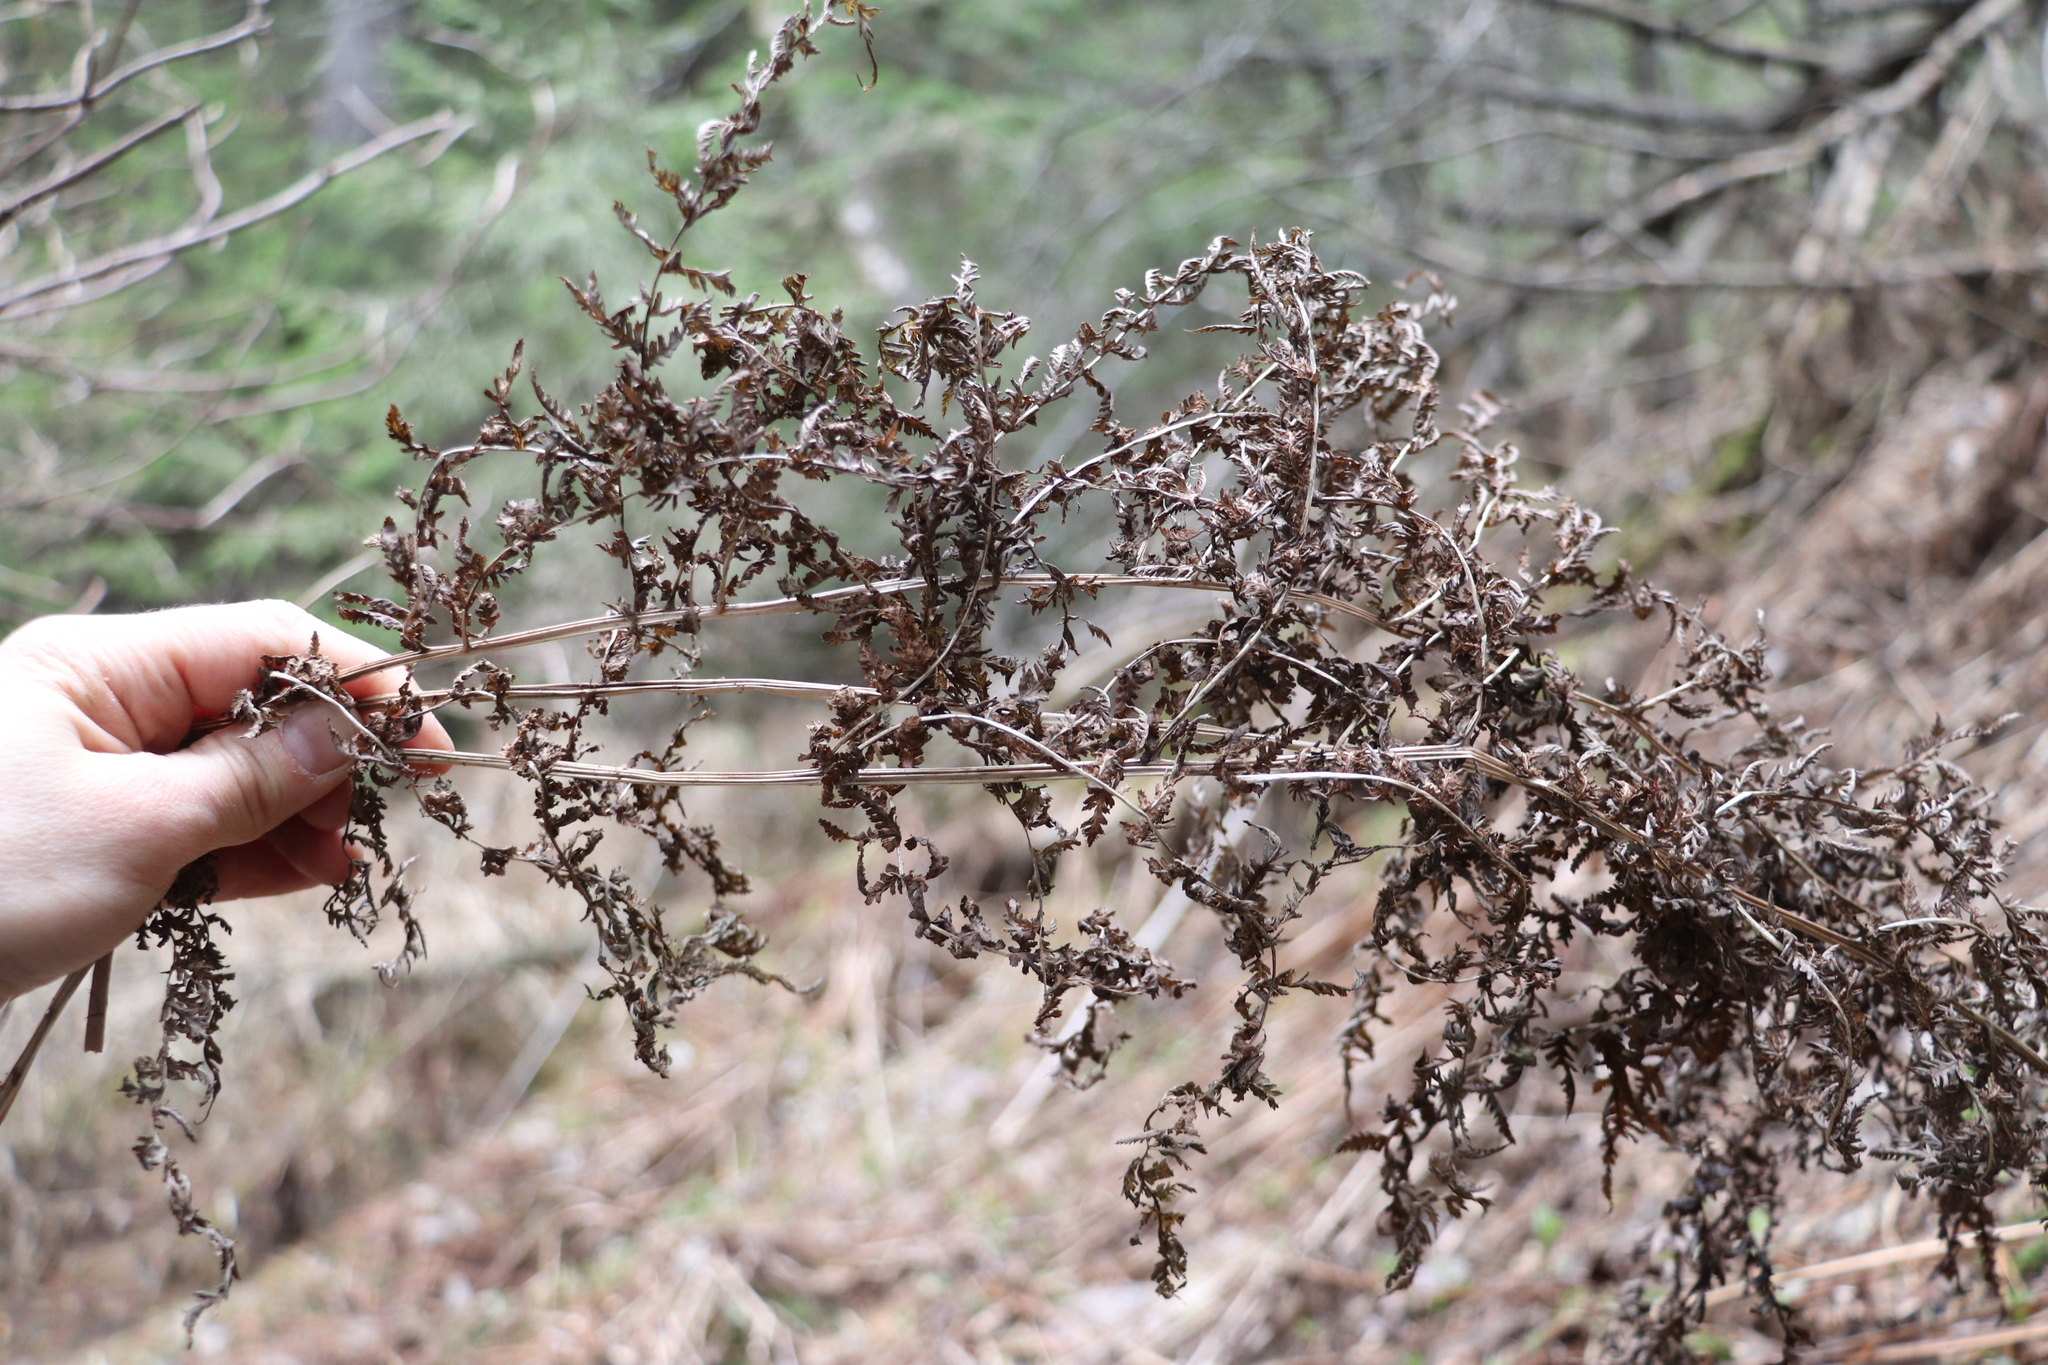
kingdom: Plantae
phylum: Tracheophyta
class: Polypodiopsida
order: Polypodiales
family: Athyriaceae
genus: Athyrium
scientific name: Athyrium filix-femina
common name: Lady fern
